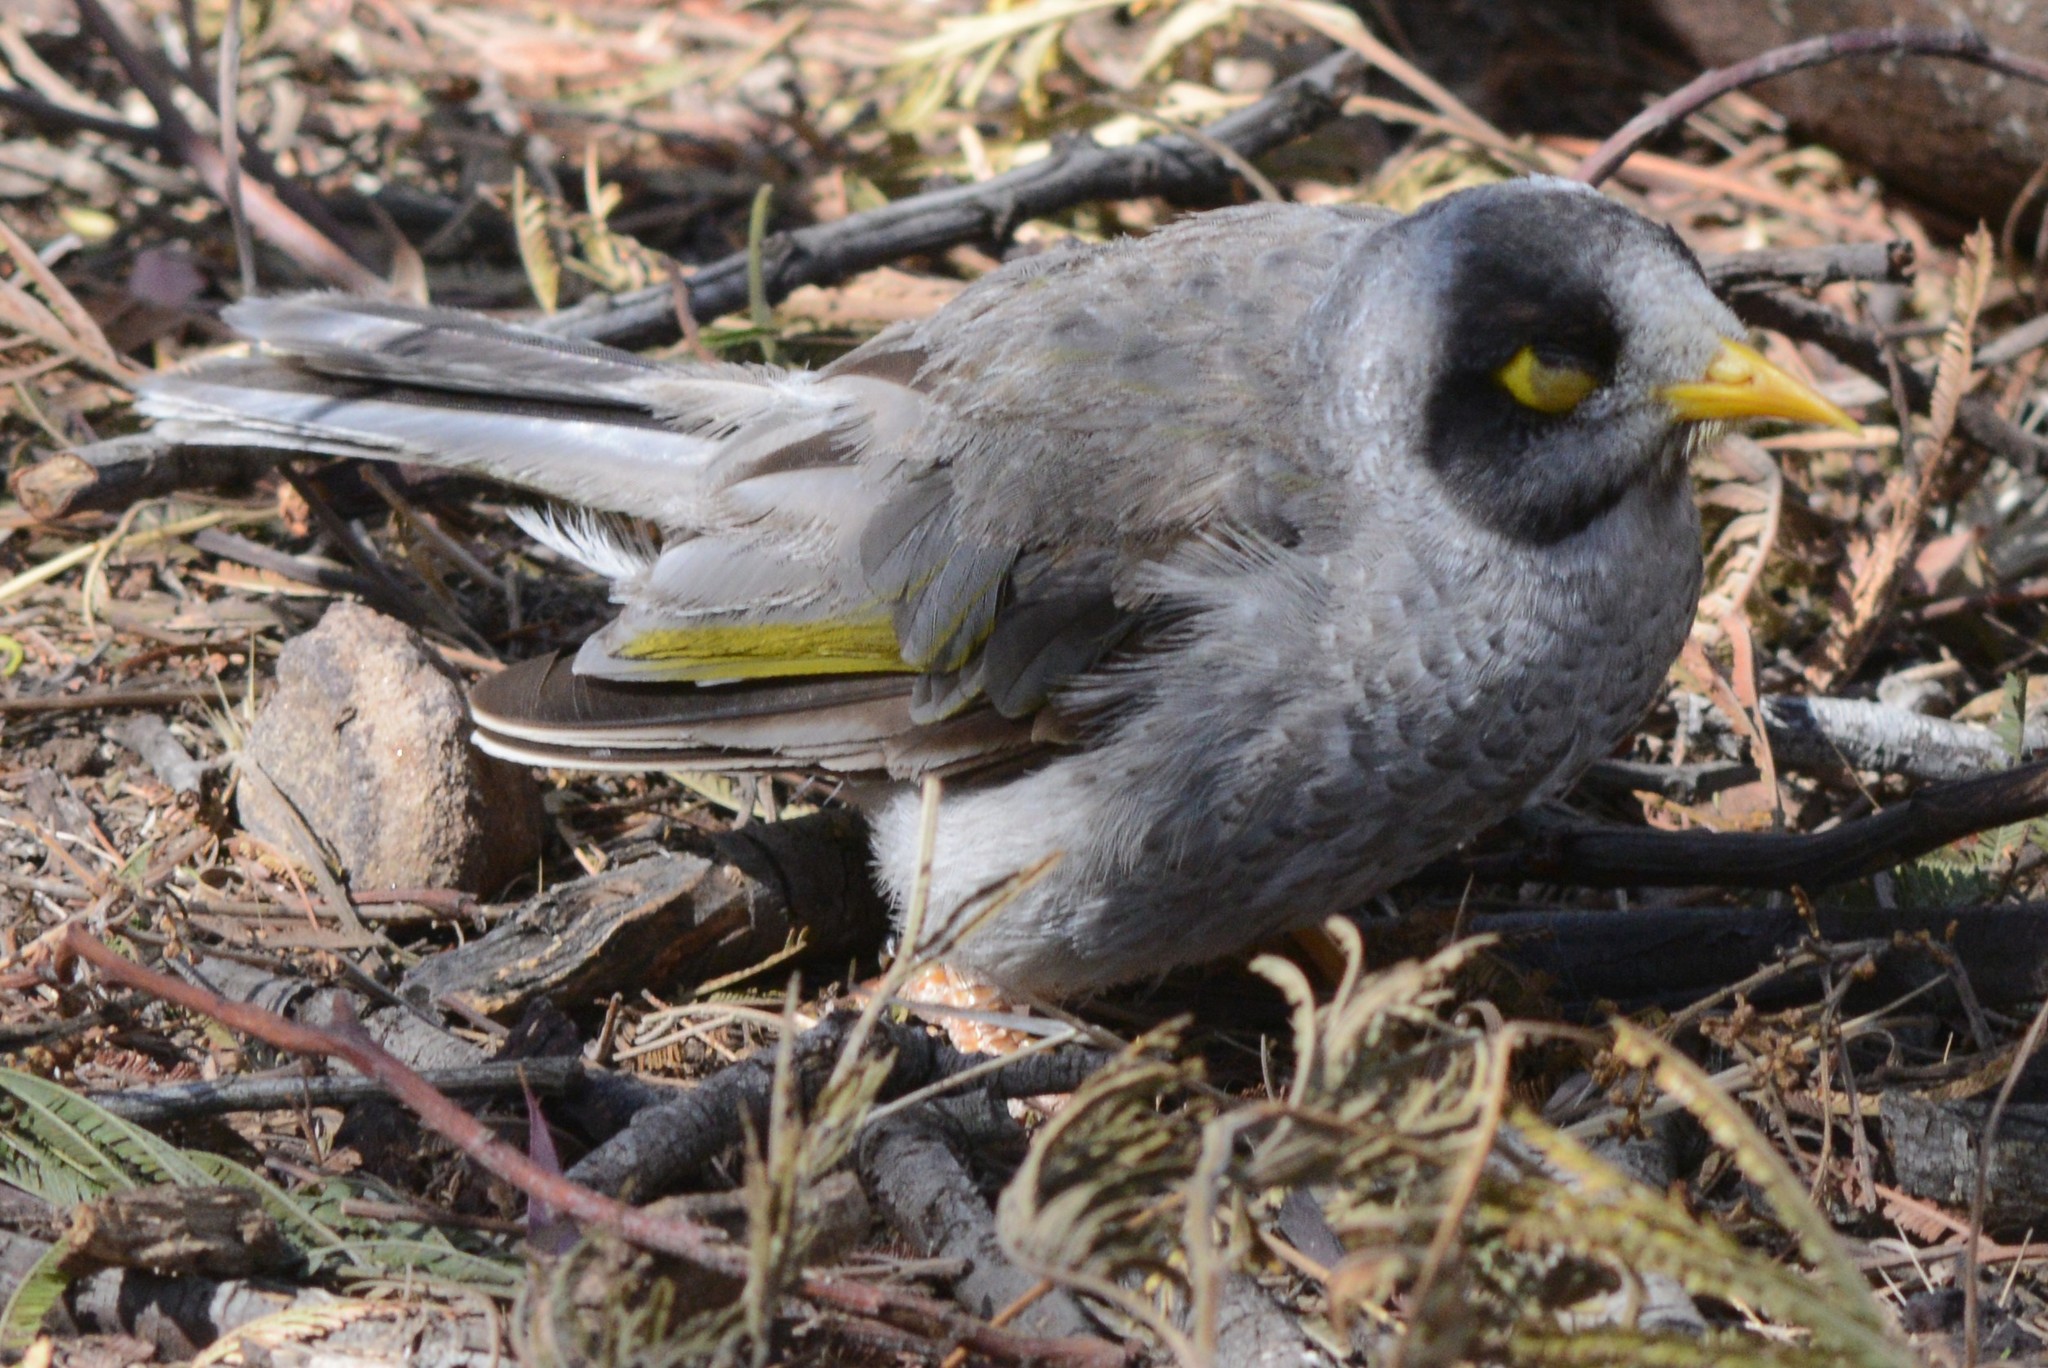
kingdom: Animalia
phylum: Chordata
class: Aves
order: Passeriformes
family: Meliphagidae
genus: Manorina
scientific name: Manorina melanocephala
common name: Noisy miner
